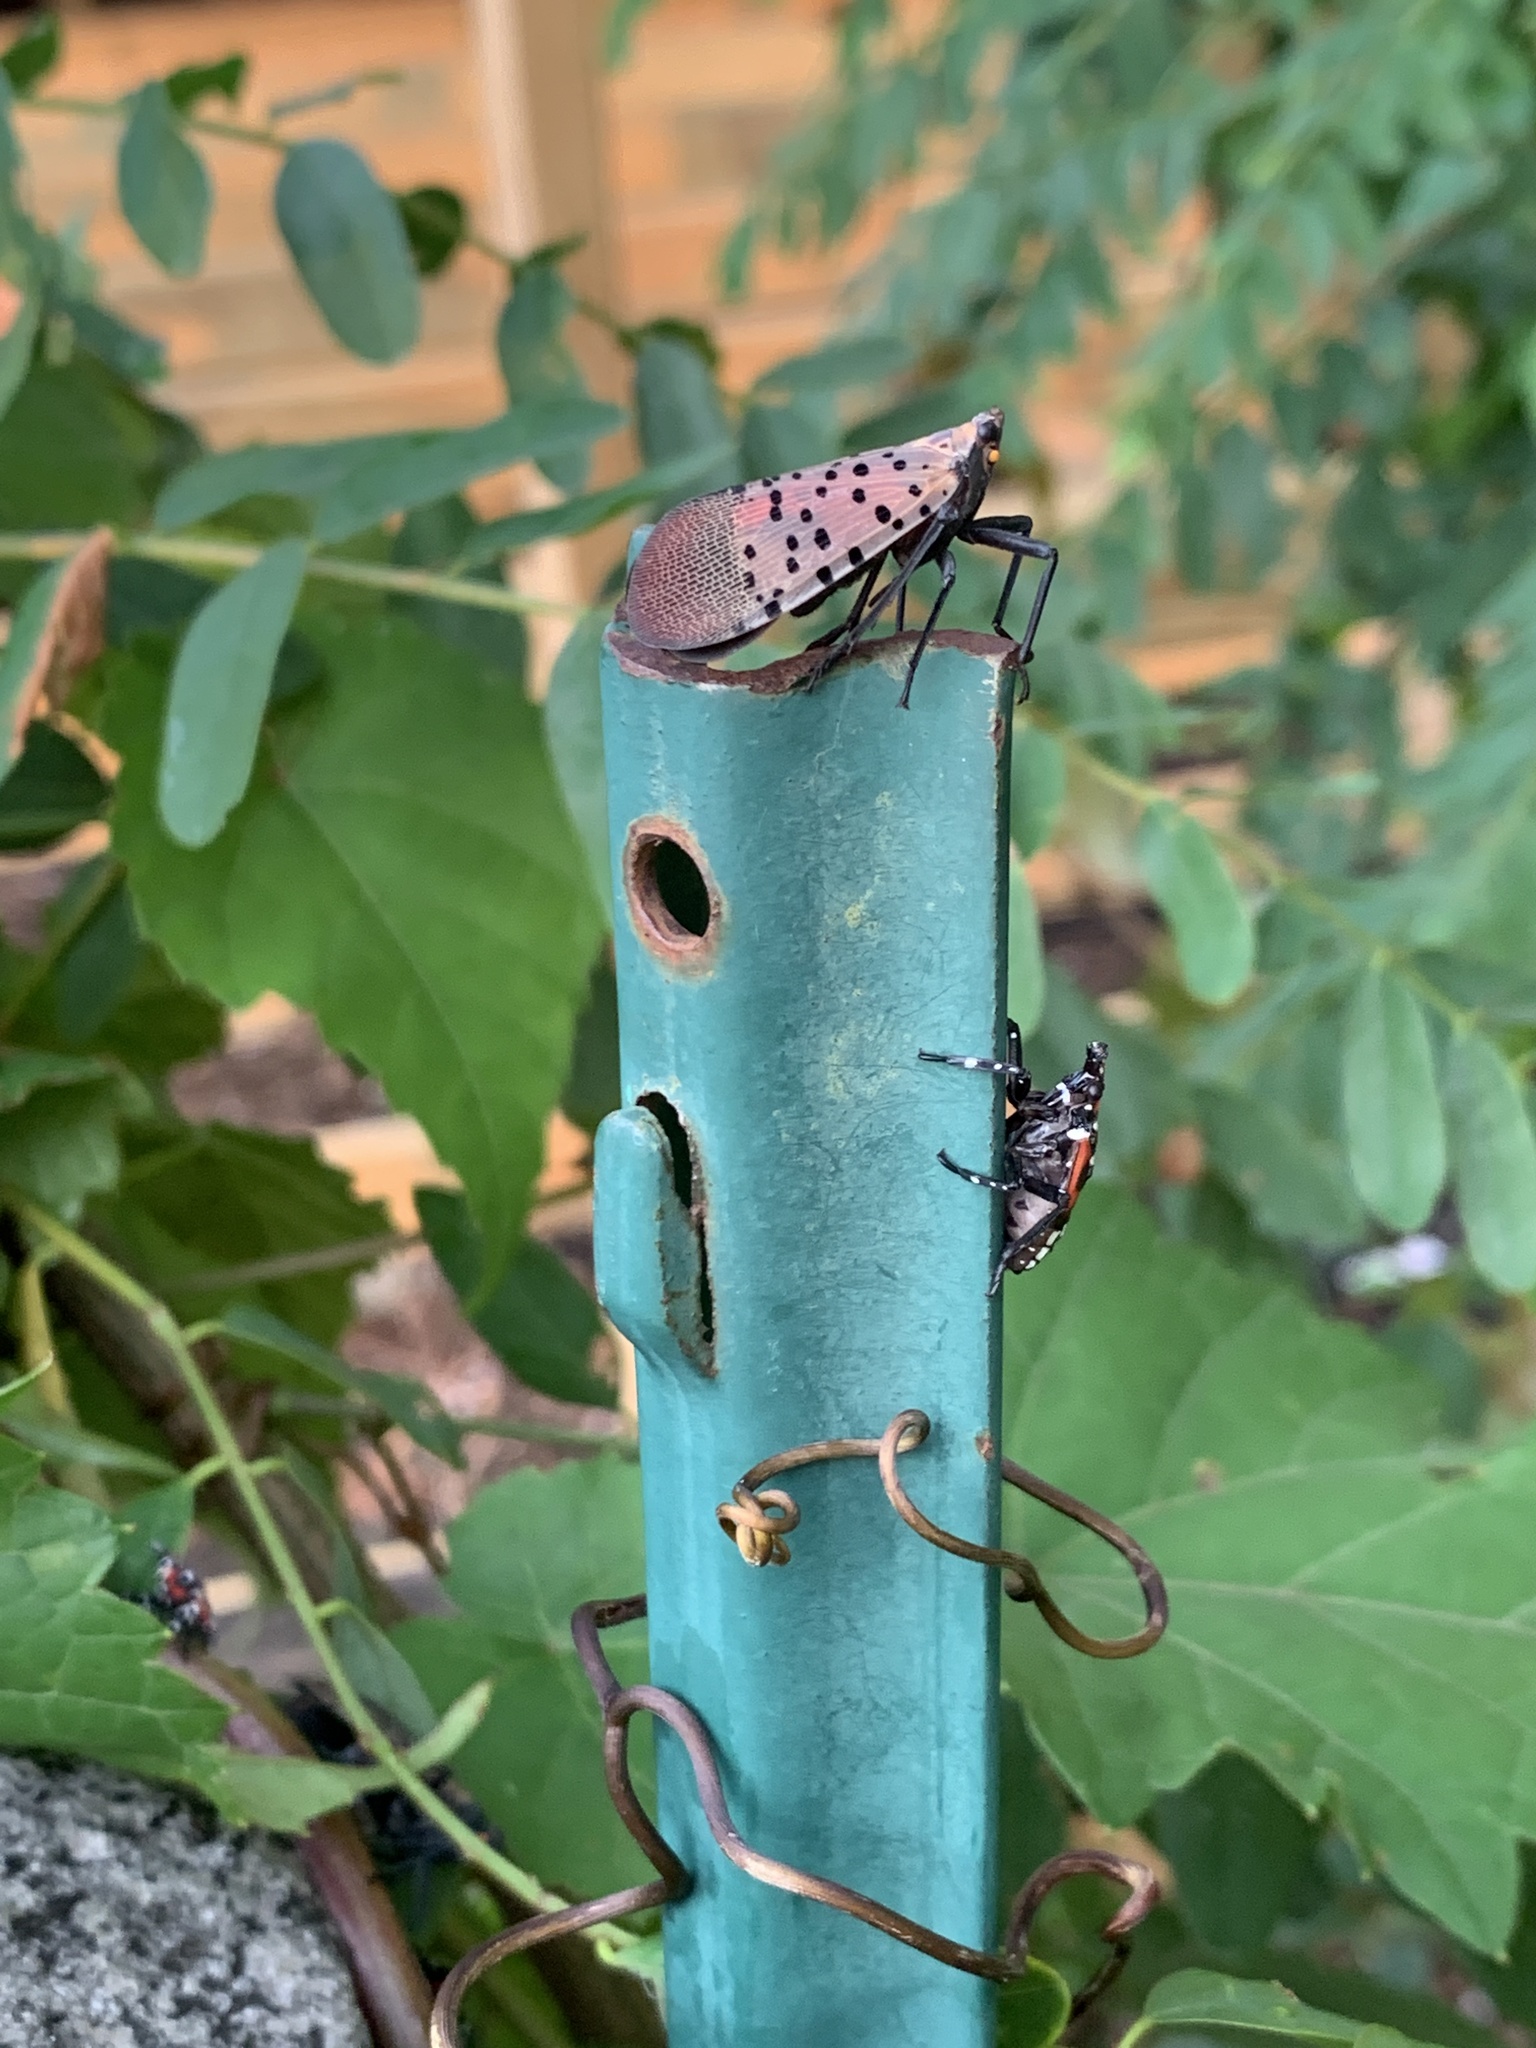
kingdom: Animalia
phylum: Arthropoda
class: Insecta
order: Hemiptera
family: Fulgoridae
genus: Lycorma
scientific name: Lycorma delicatula
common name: Spotted lanternfly
